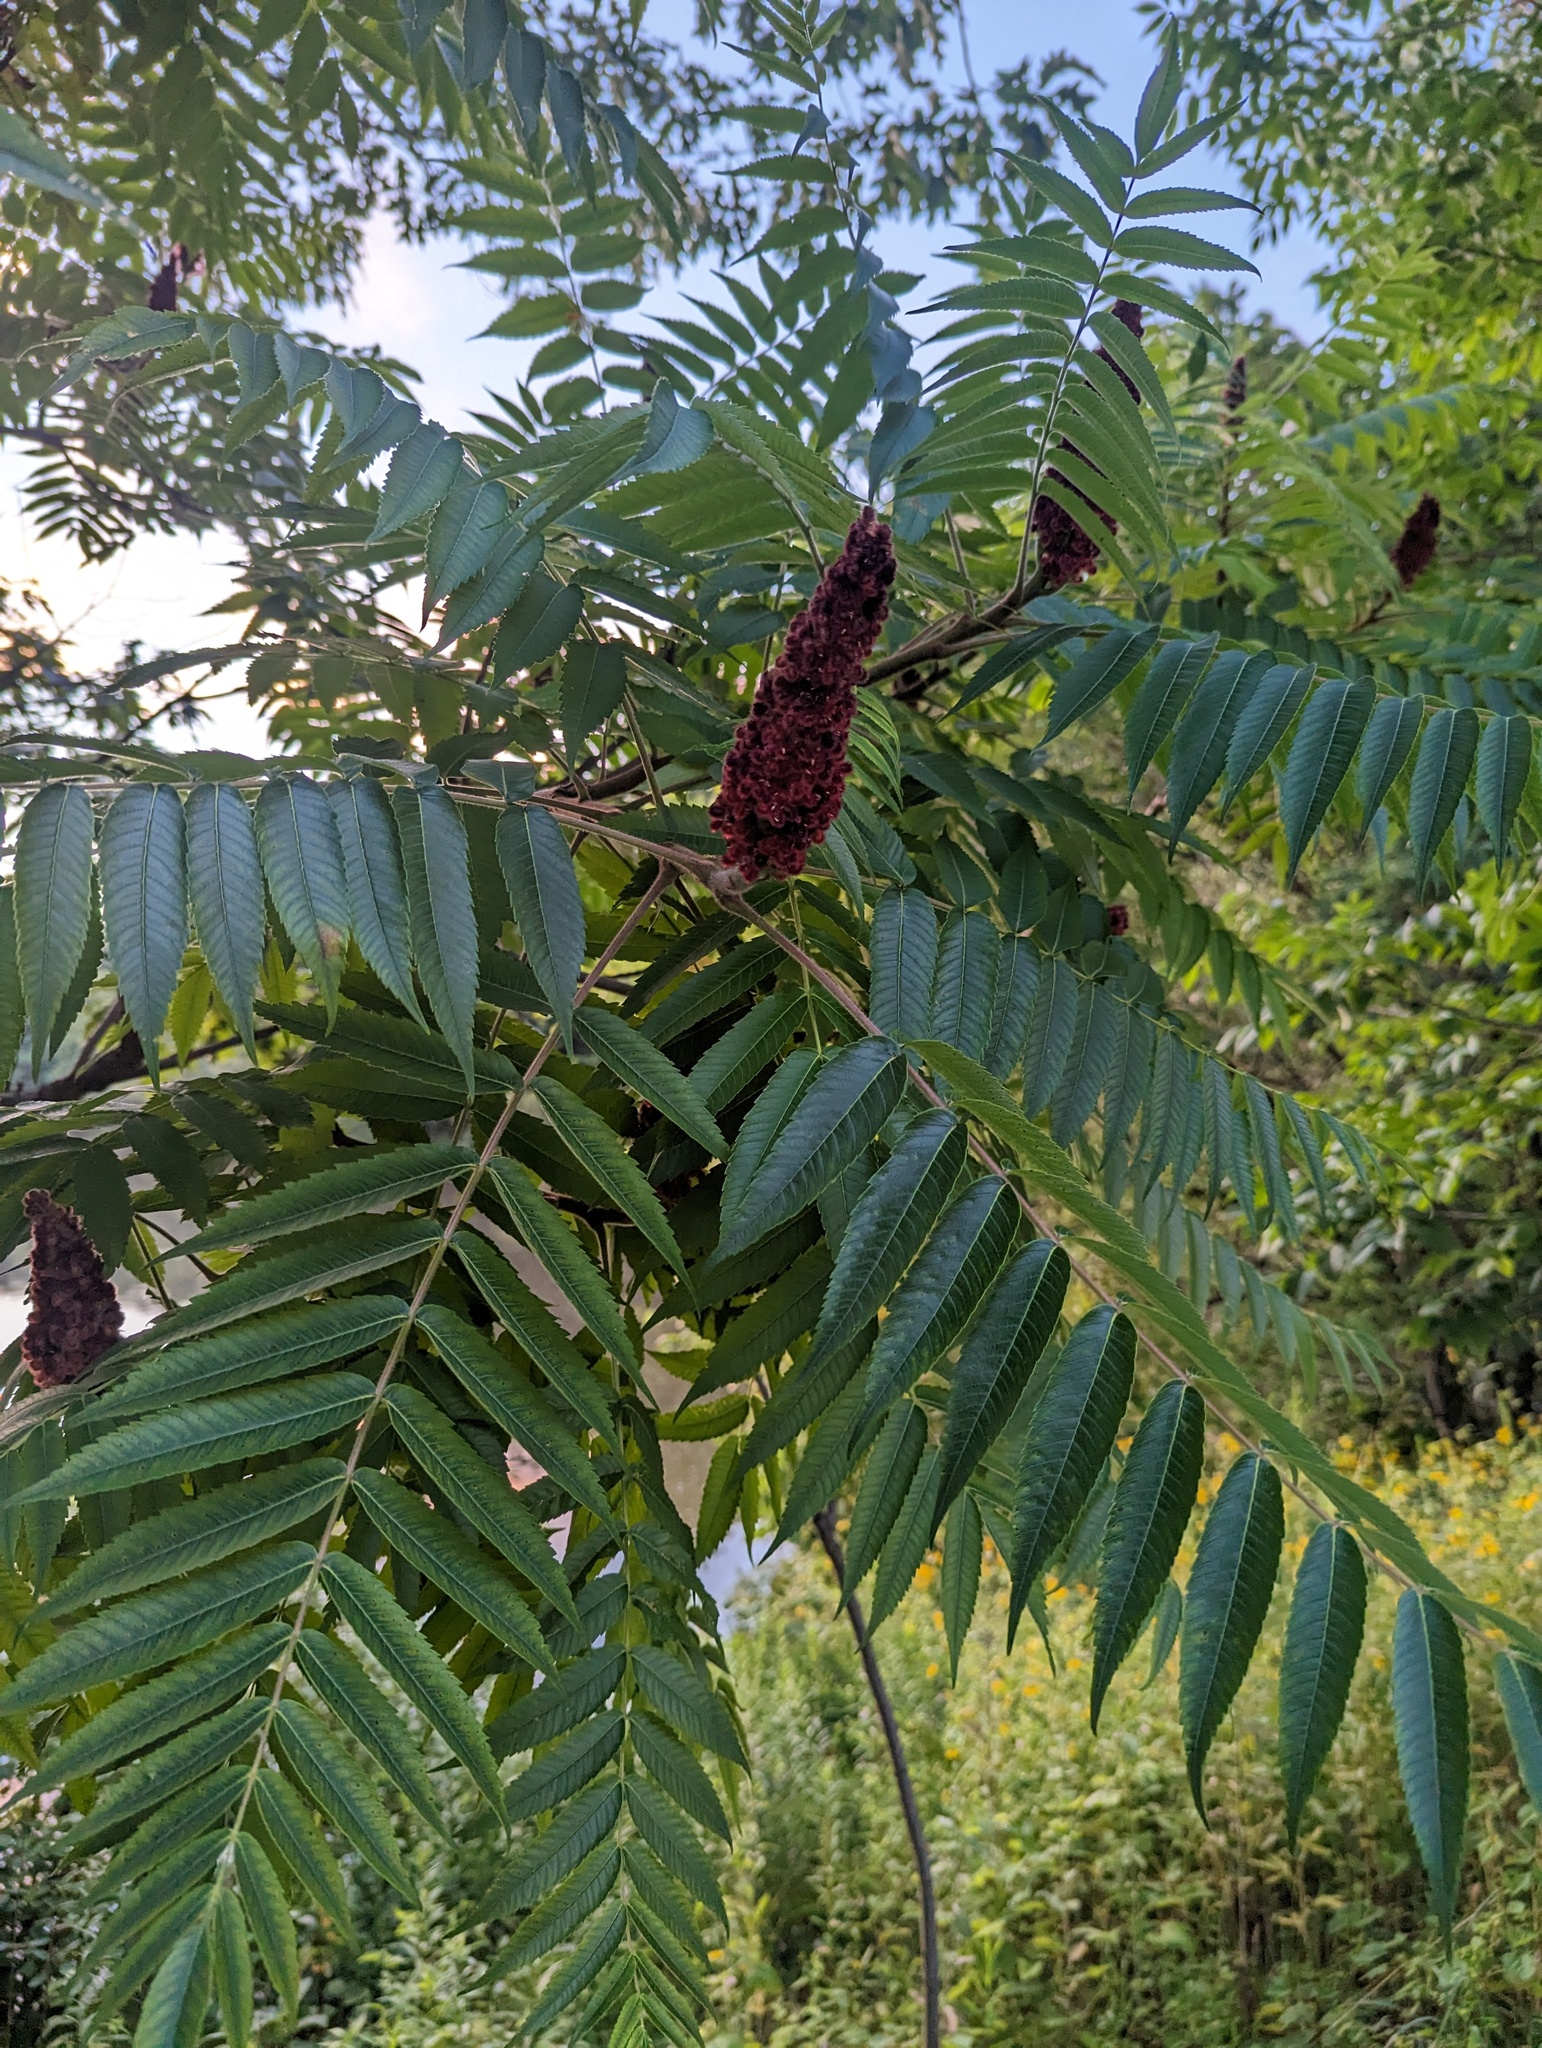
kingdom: Plantae
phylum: Tracheophyta
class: Magnoliopsida
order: Sapindales
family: Anacardiaceae
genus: Rhus
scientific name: Rhus typhina
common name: Staghorn sumac
